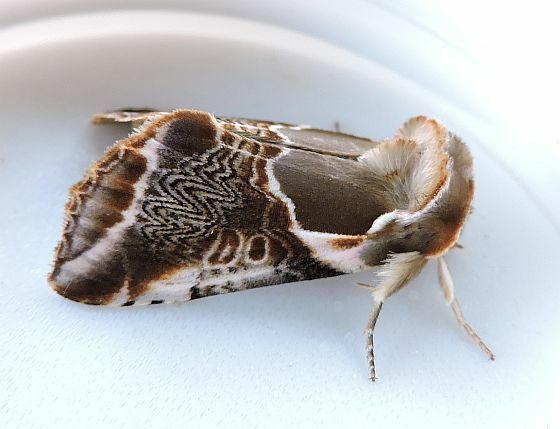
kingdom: Animalia
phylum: Arthropoda
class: Insecta
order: Lepidoptera
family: Drepanidae
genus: Habrosyne
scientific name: Habrosyne scripta
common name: Lettered habrosyne moth
